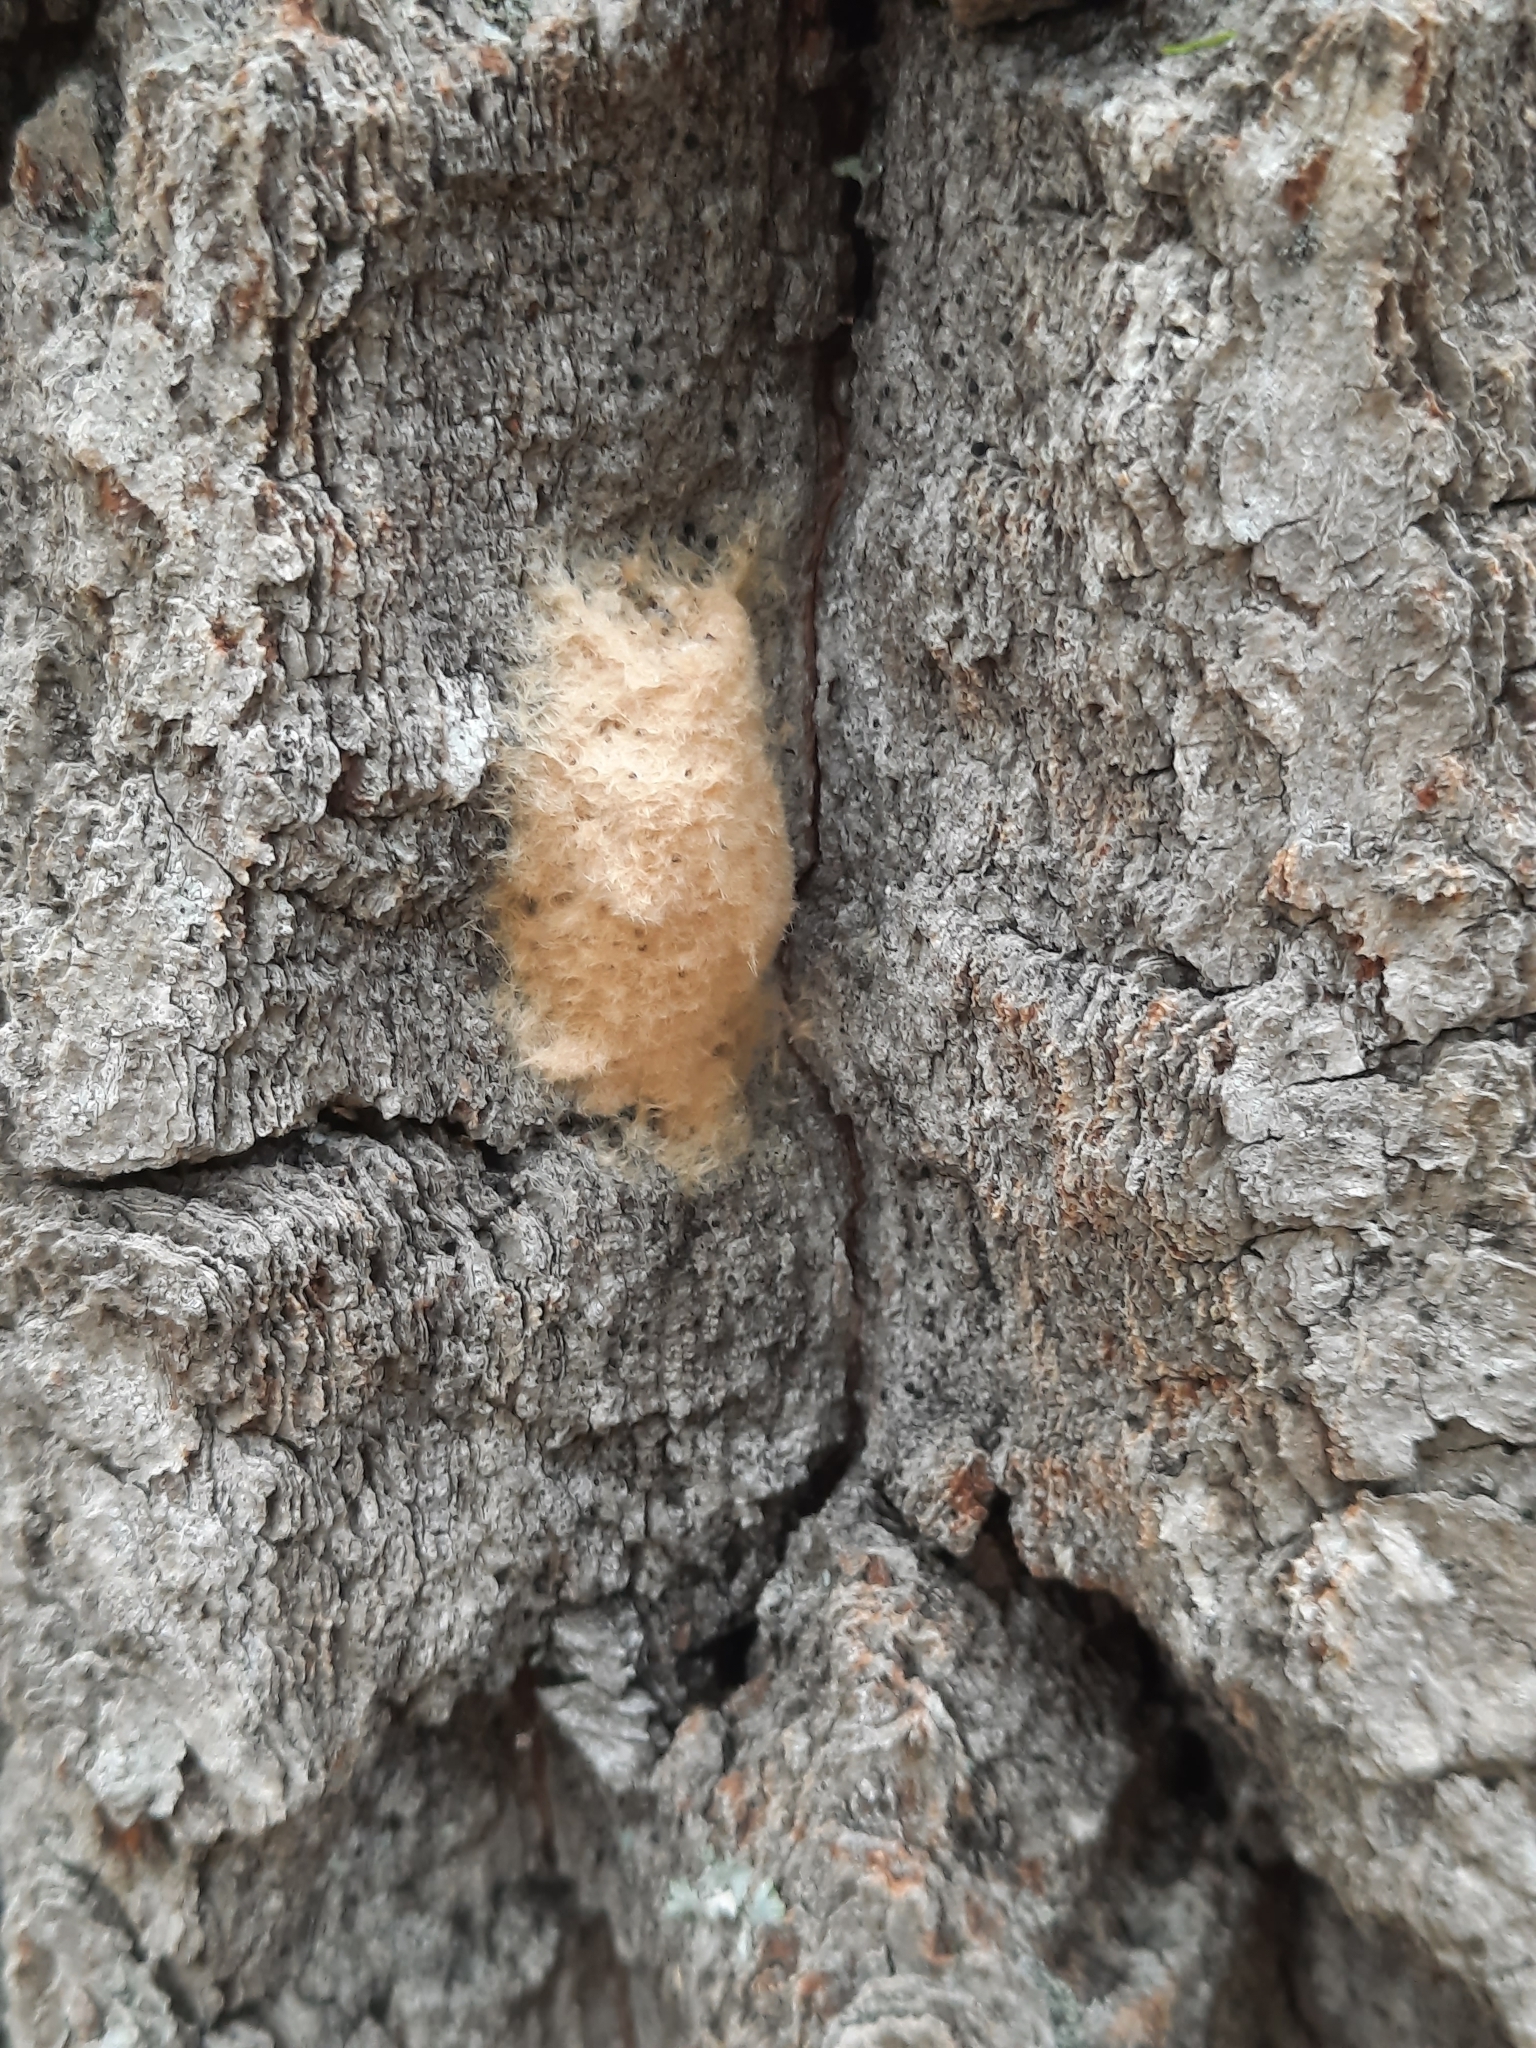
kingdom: Animalia
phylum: Arthropoda
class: Insecta
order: Lepidoptera
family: Erebidae
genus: Lymantria
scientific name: Lymantria dispar
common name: Gypsy moth
